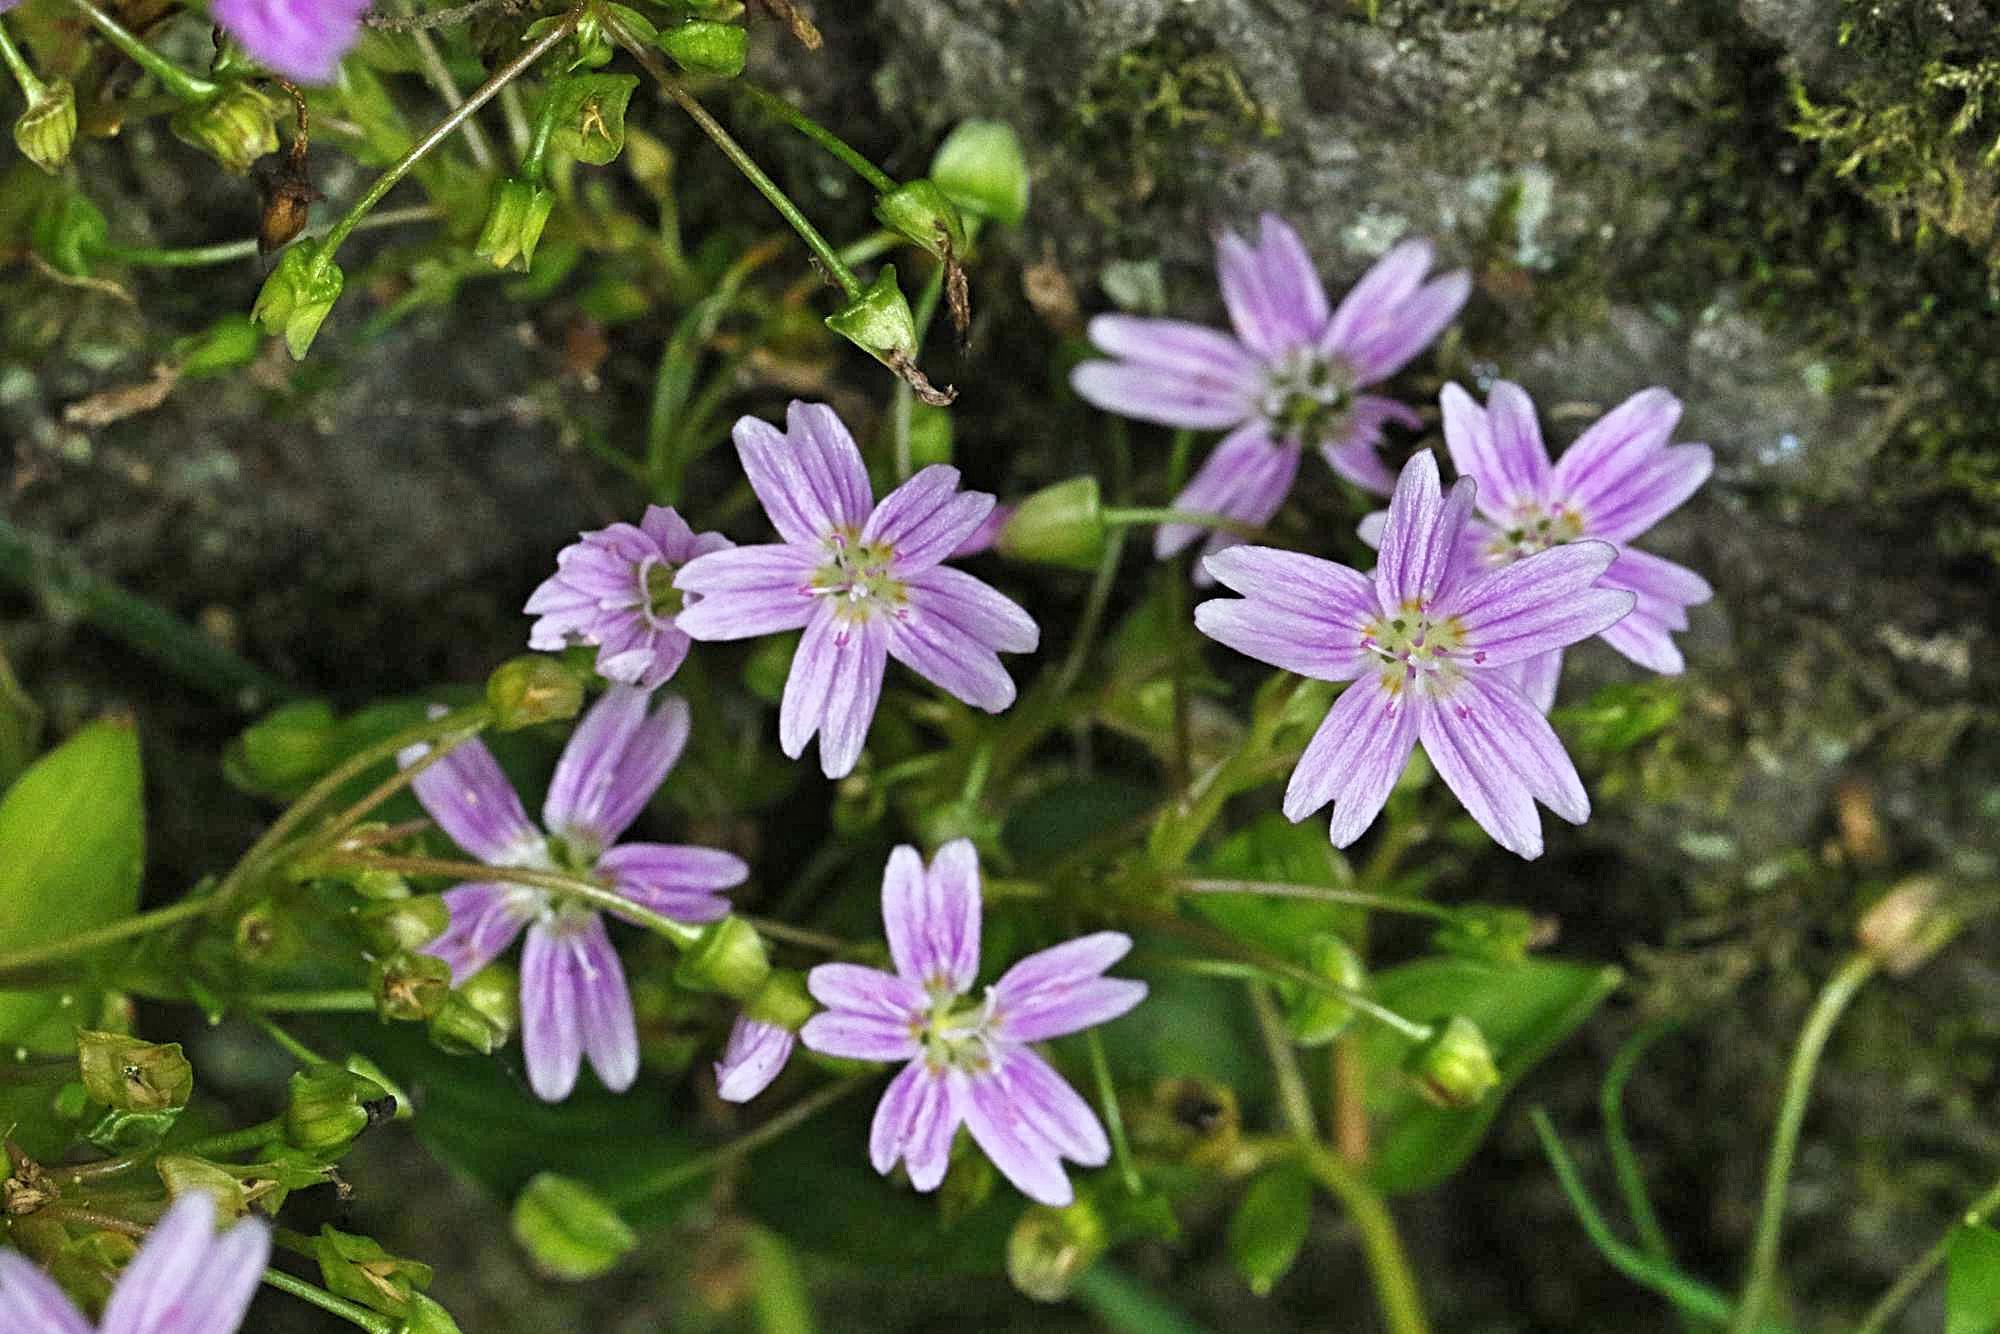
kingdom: Plantae
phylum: Tracheophyta
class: Magnoliopsida
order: Caryophyllales
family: Montiaceae
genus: Claytonia
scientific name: Claytonia sibirica
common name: Pink purslane
